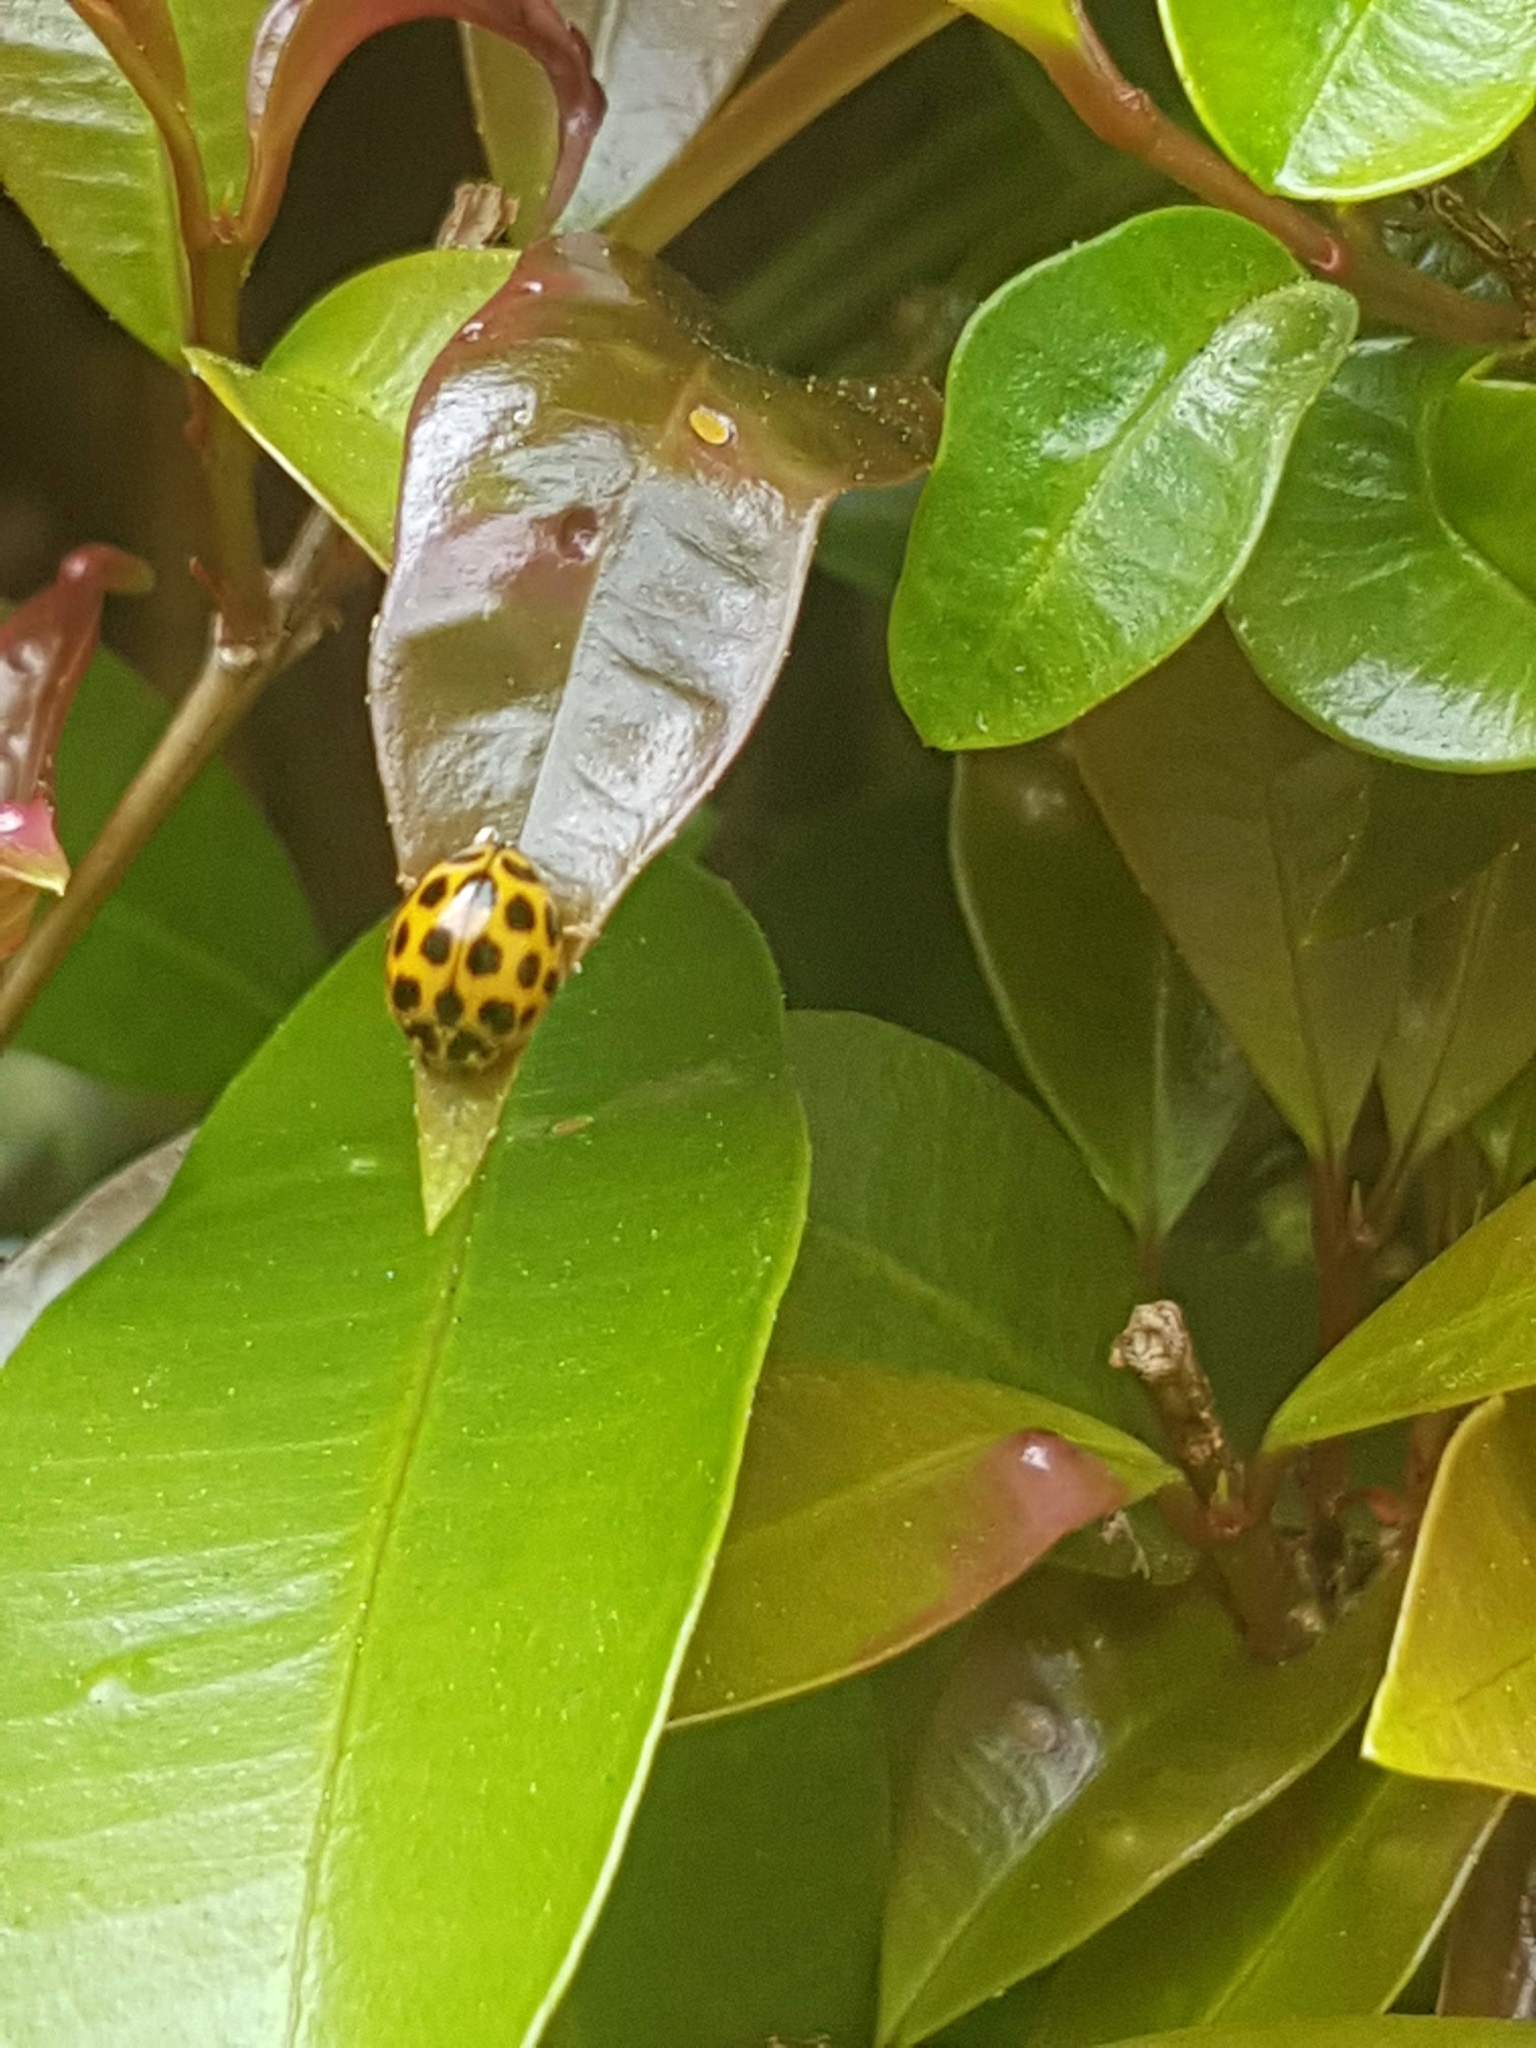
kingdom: Animalia
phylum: Arthropoda
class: Insecta
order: Coleoptera
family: Coccinellidae
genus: Harmonia
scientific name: Harmonia conformis
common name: Common spotted ladybird beetle
